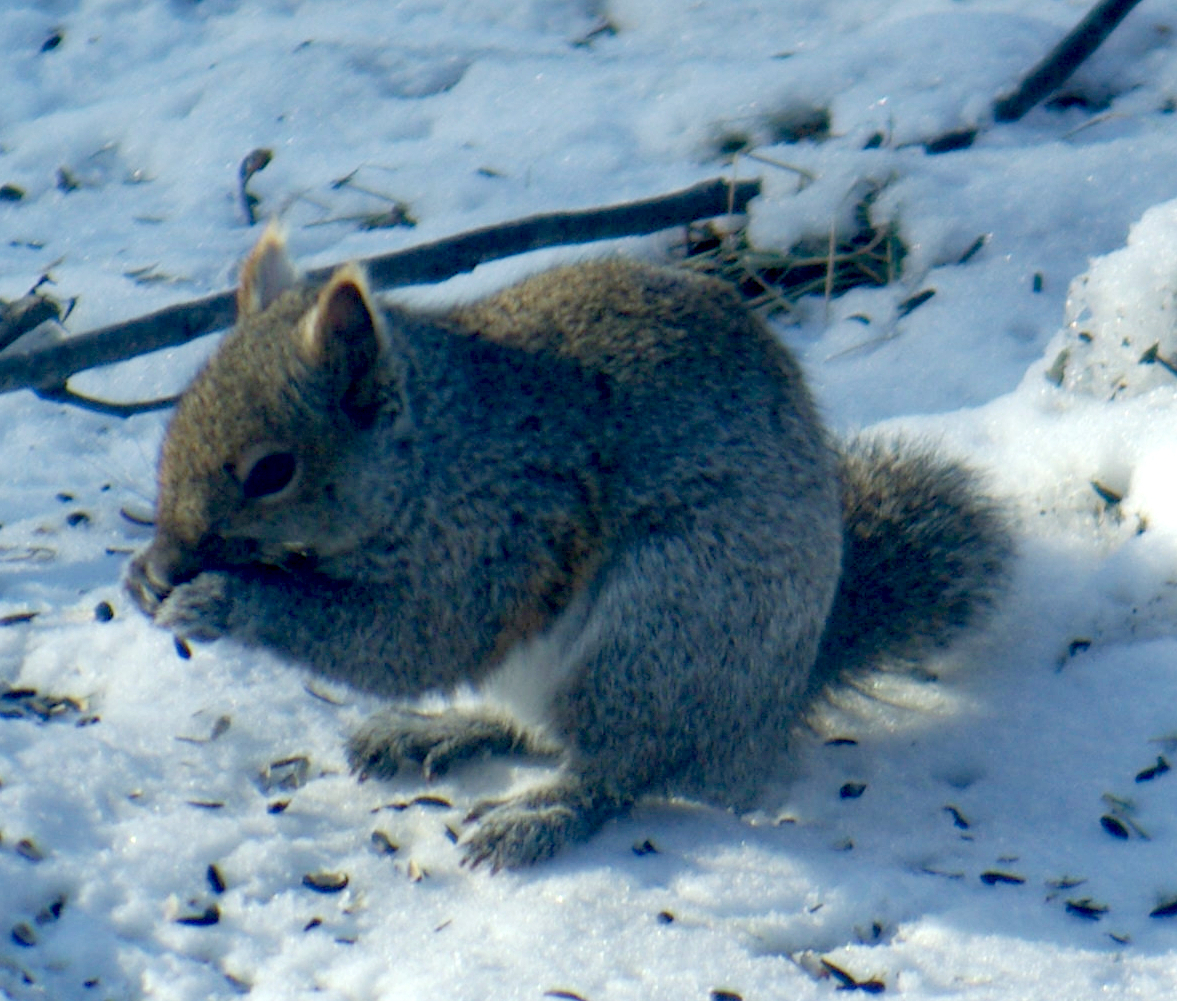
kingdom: Animalia
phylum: Chordata
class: Mammalia
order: Rodentia
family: Sciuridae
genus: Sciurus
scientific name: Sciurus carolinensis
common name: Eastern gray squirrel
